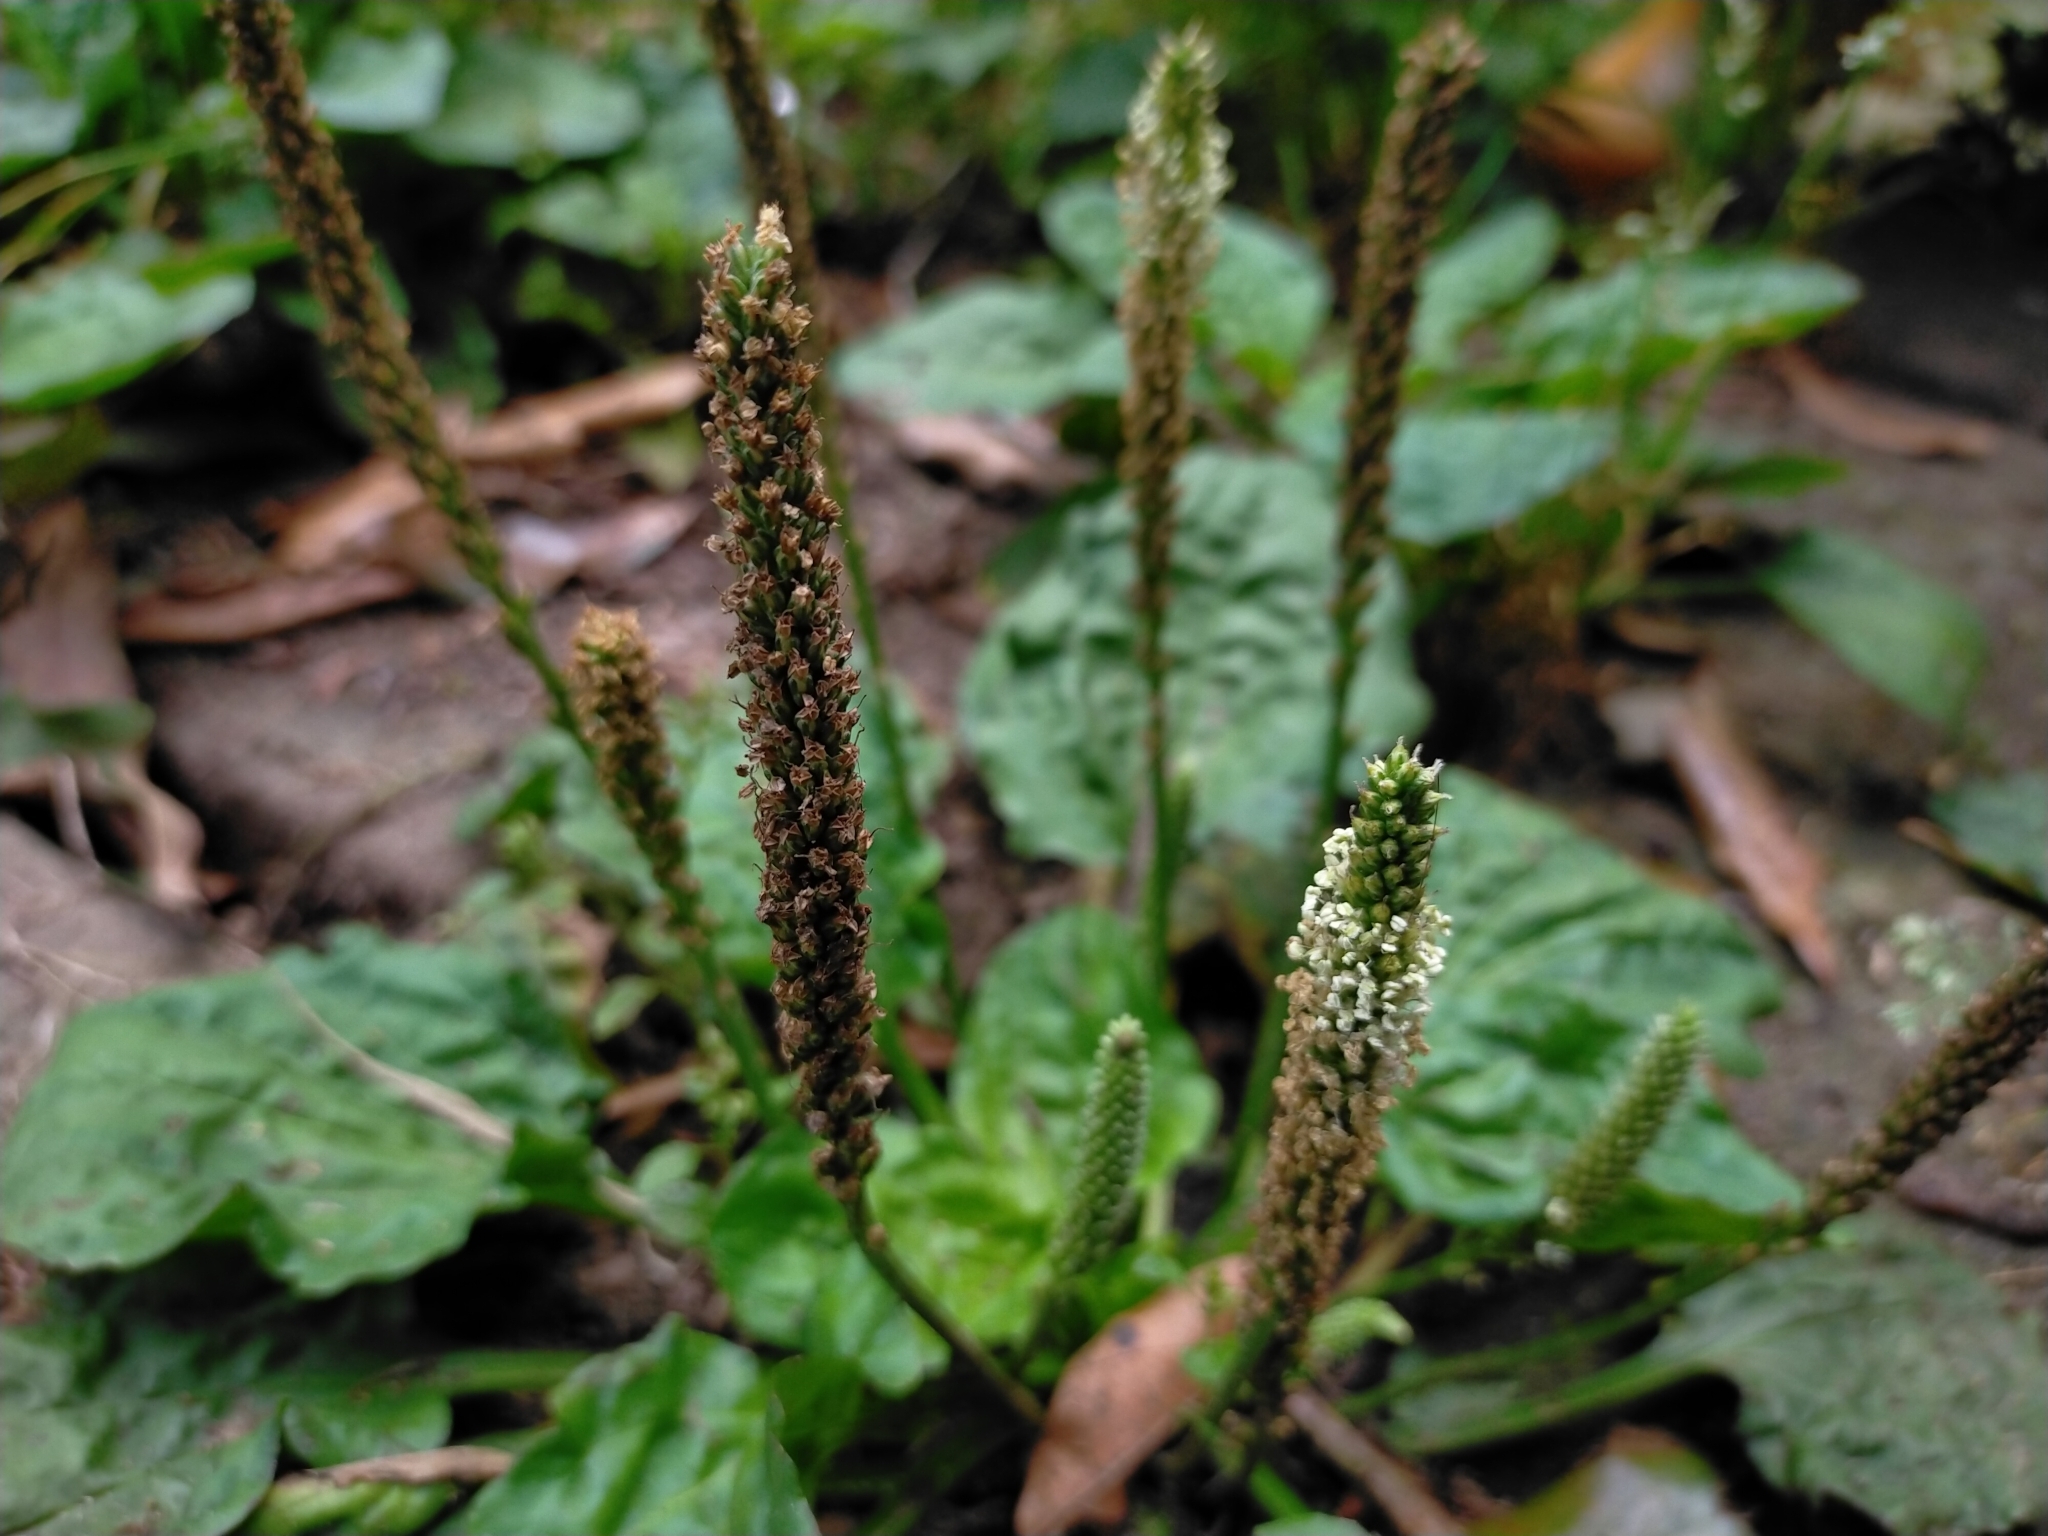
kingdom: Plantae
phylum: Tracheophyta
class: Magnoliopsida
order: Lamiales
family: Plantaginaceae
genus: Plantago
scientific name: Plantago asiatica
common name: Psyllium
